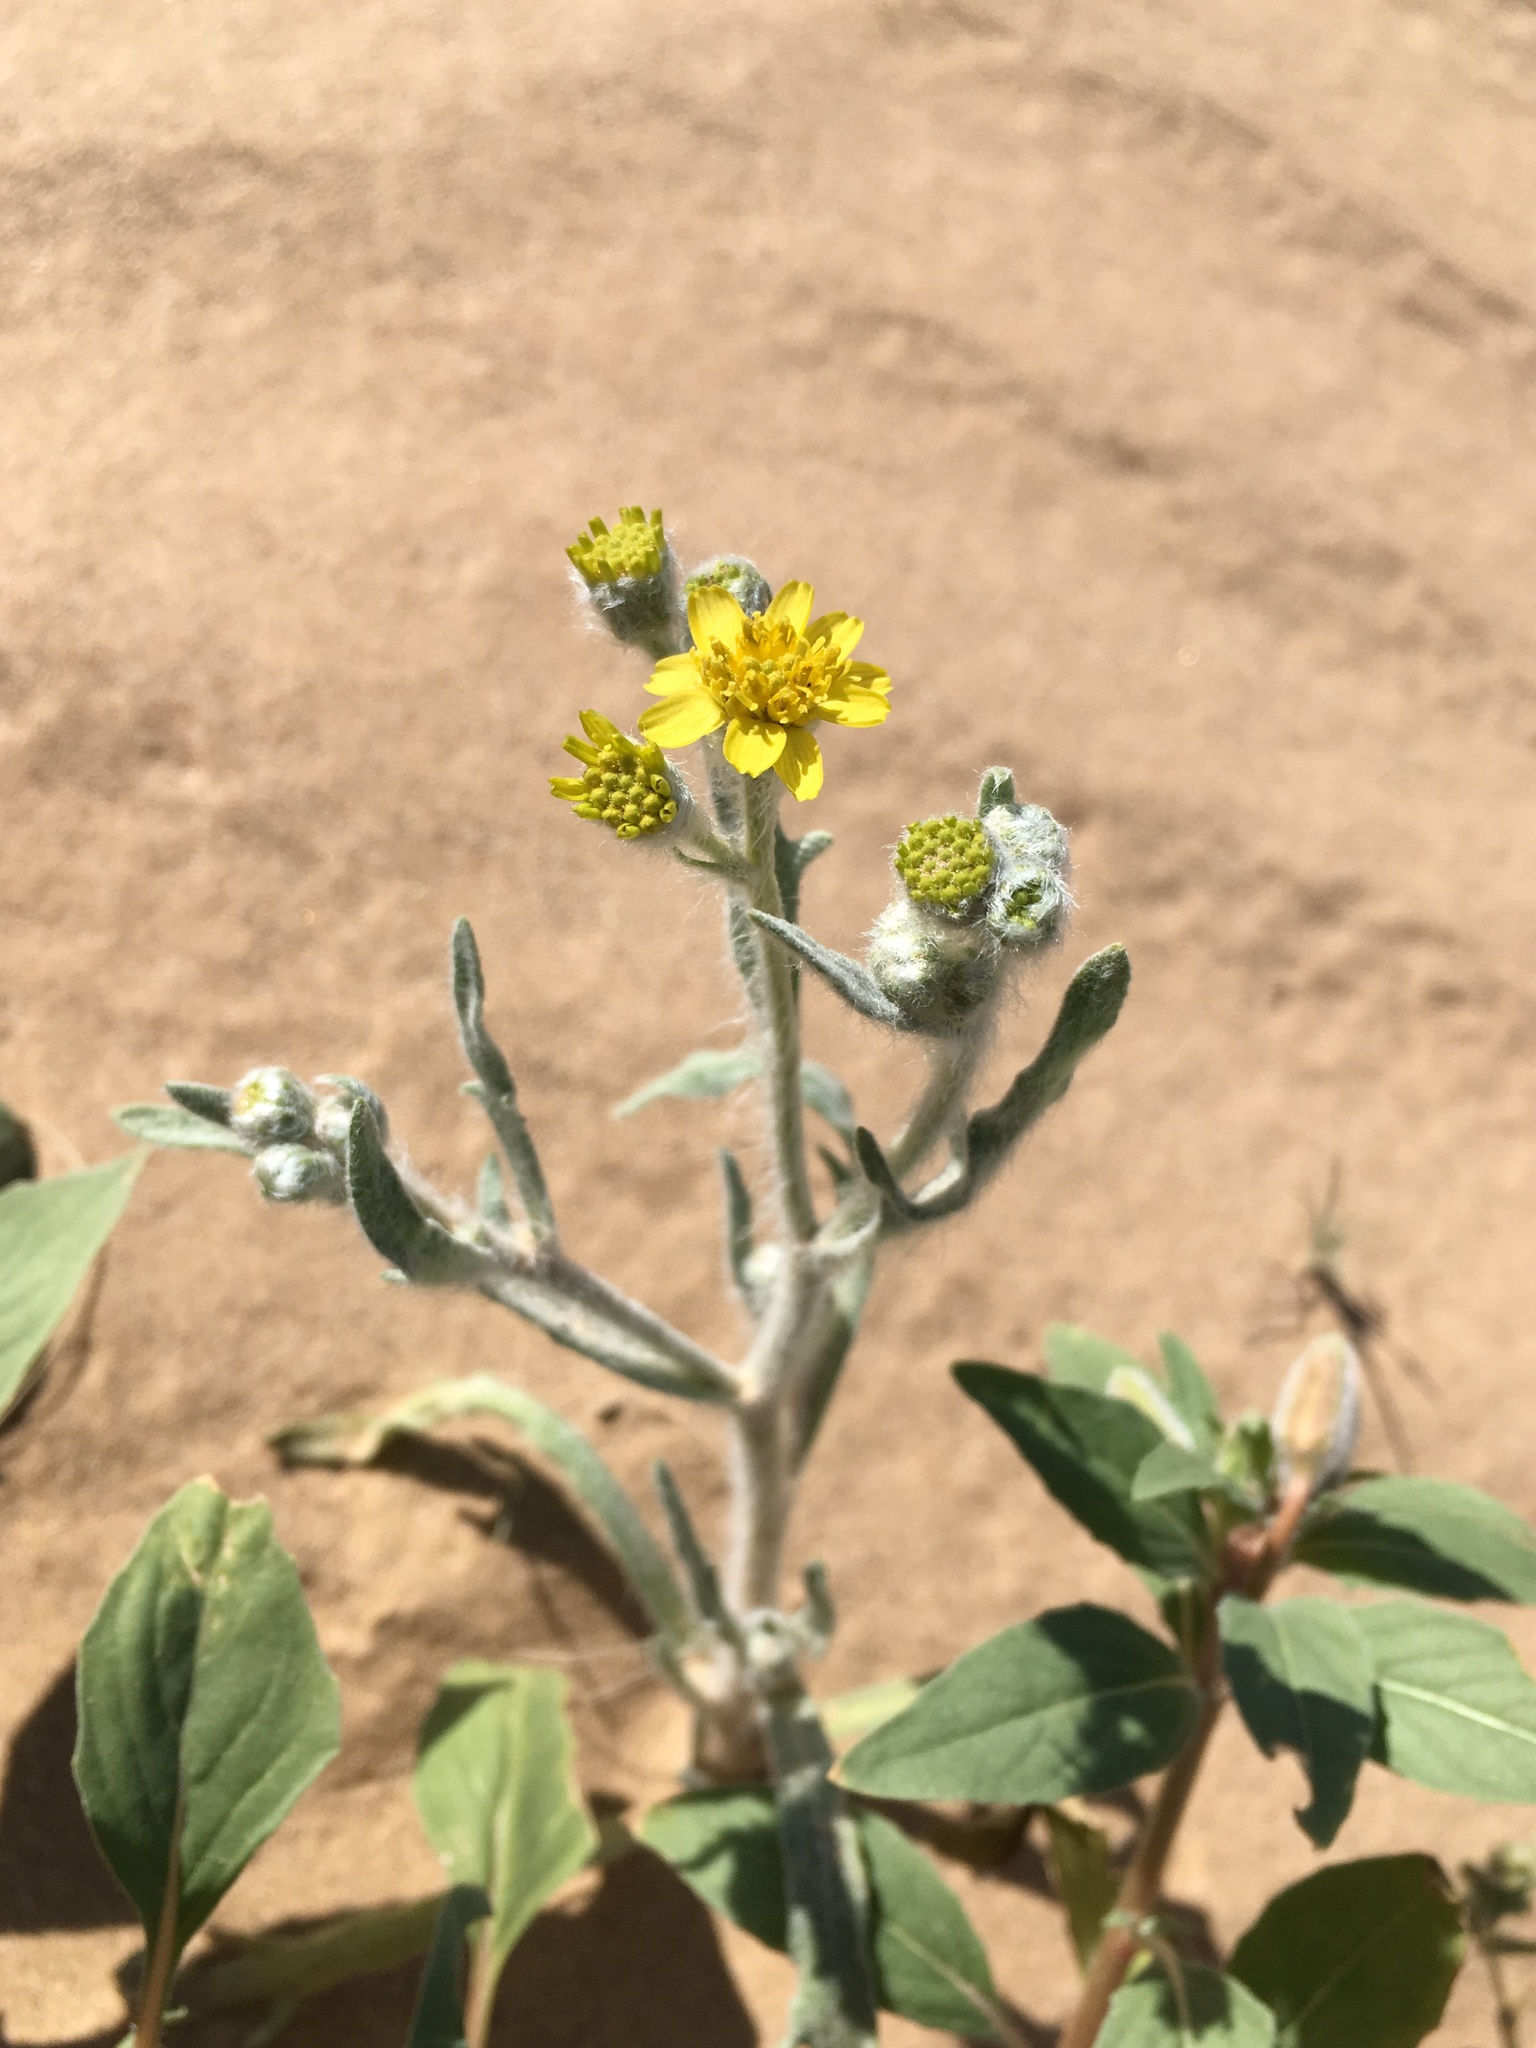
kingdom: Plantae
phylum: Tracheophyta
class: Magnoliopsida
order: Asterales
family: Asteraceae
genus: Baileya
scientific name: Baileya pauciradiata
